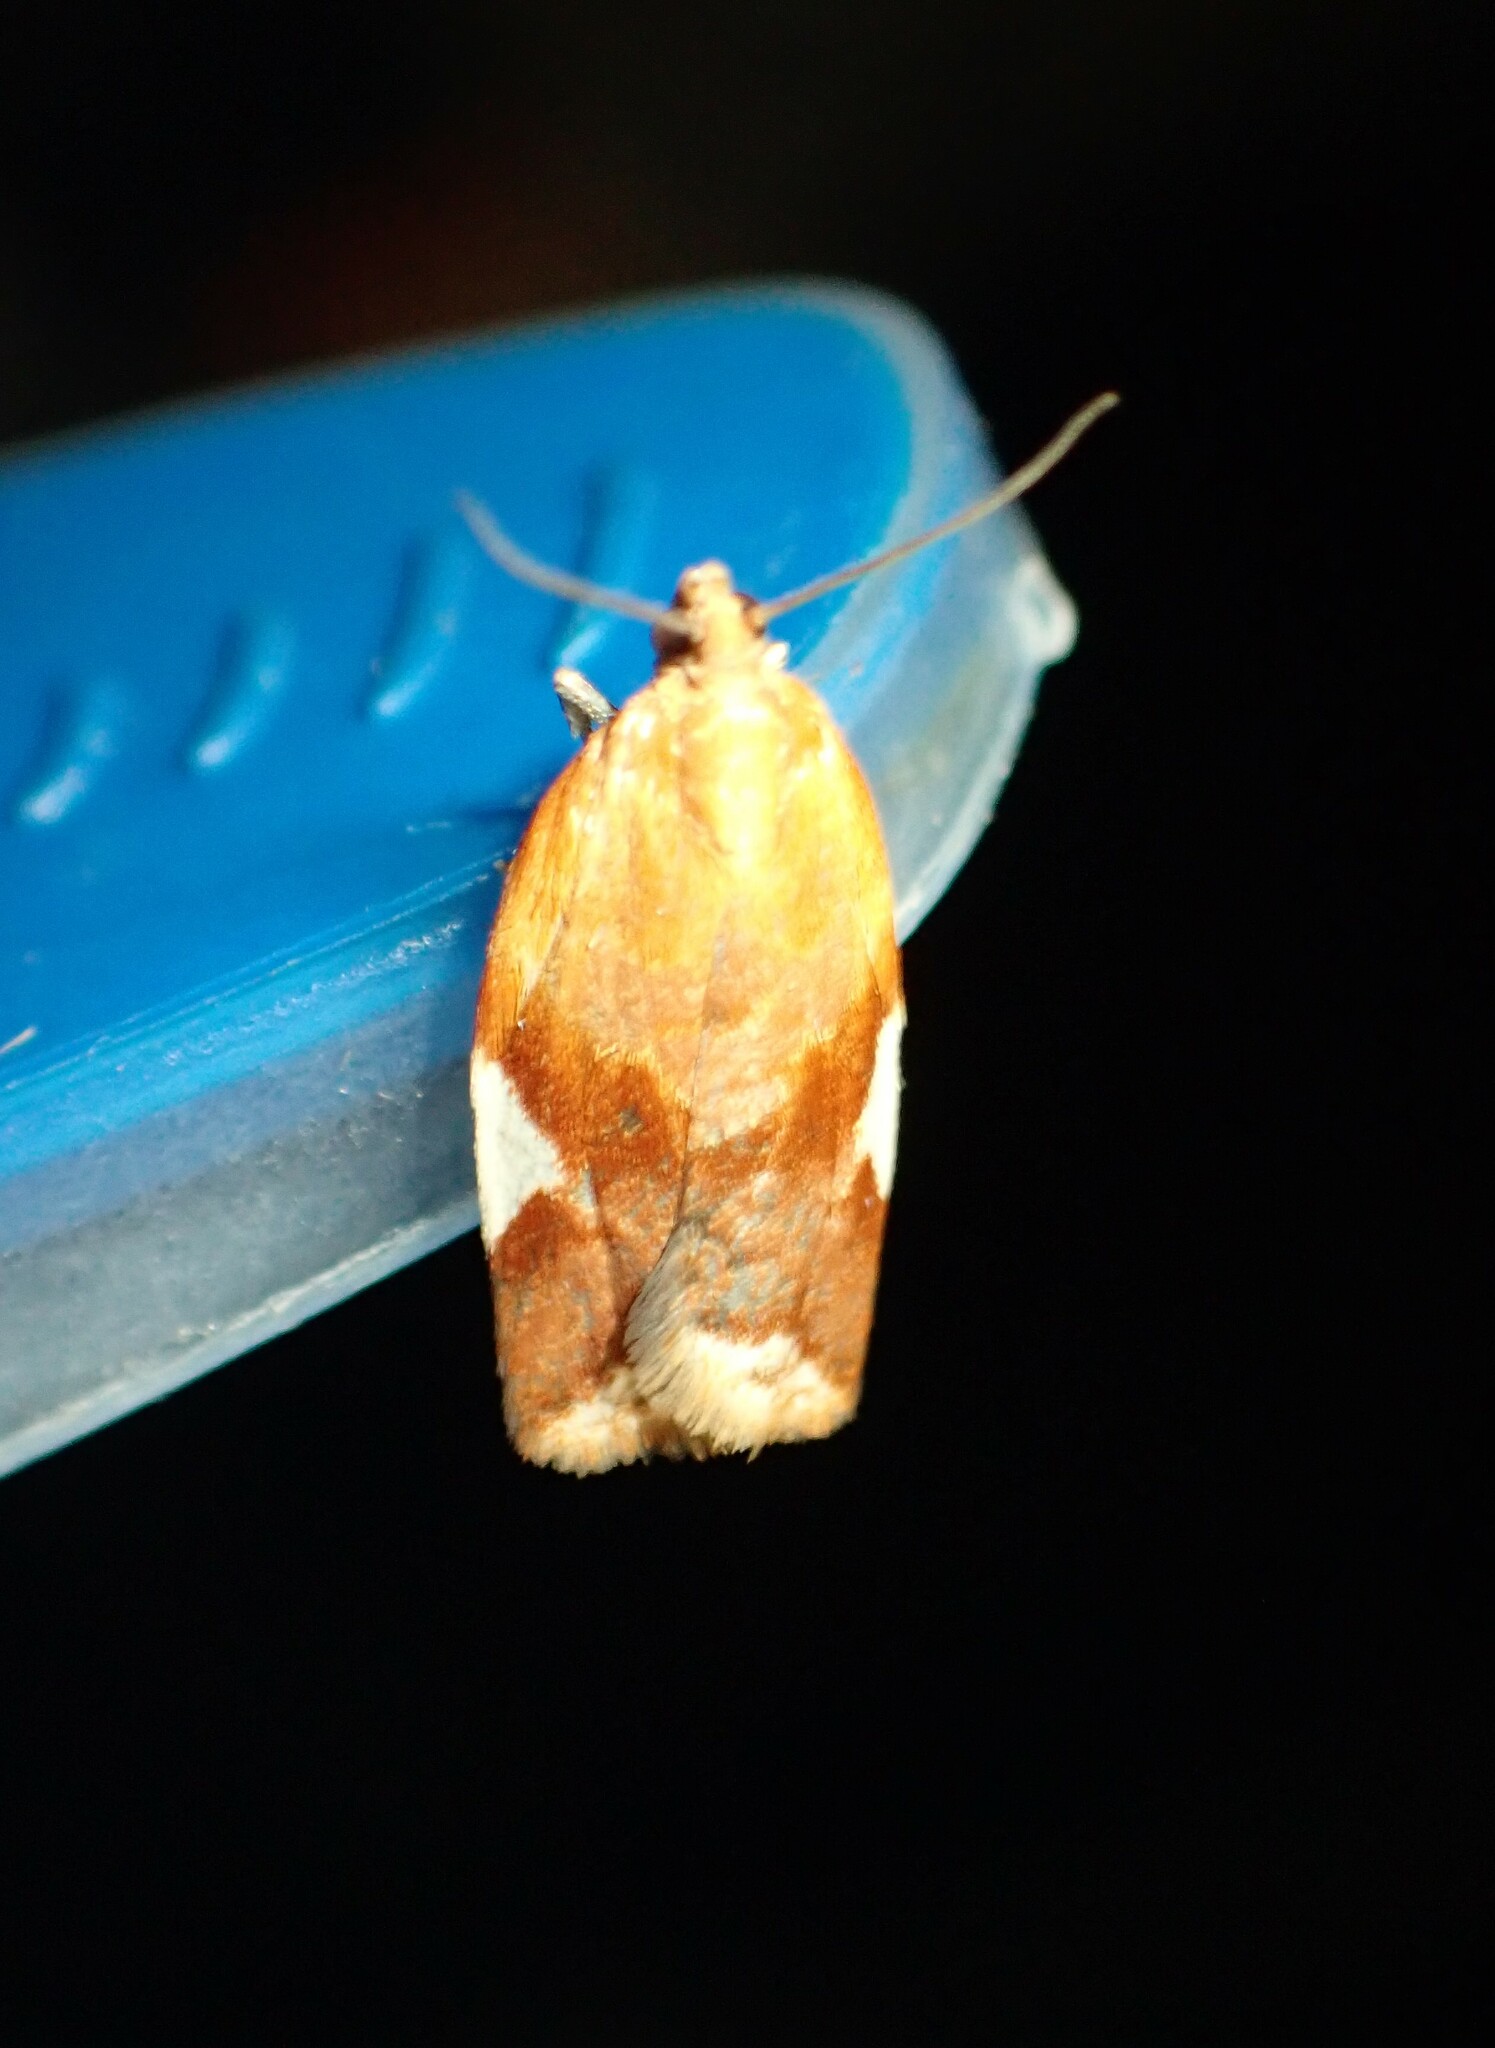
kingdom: Animalia
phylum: Arthropoda
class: Insecta
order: Lepidoptera
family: Tortricidae
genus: Clepsis
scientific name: Clepsis persicana
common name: White triangle tortrix
